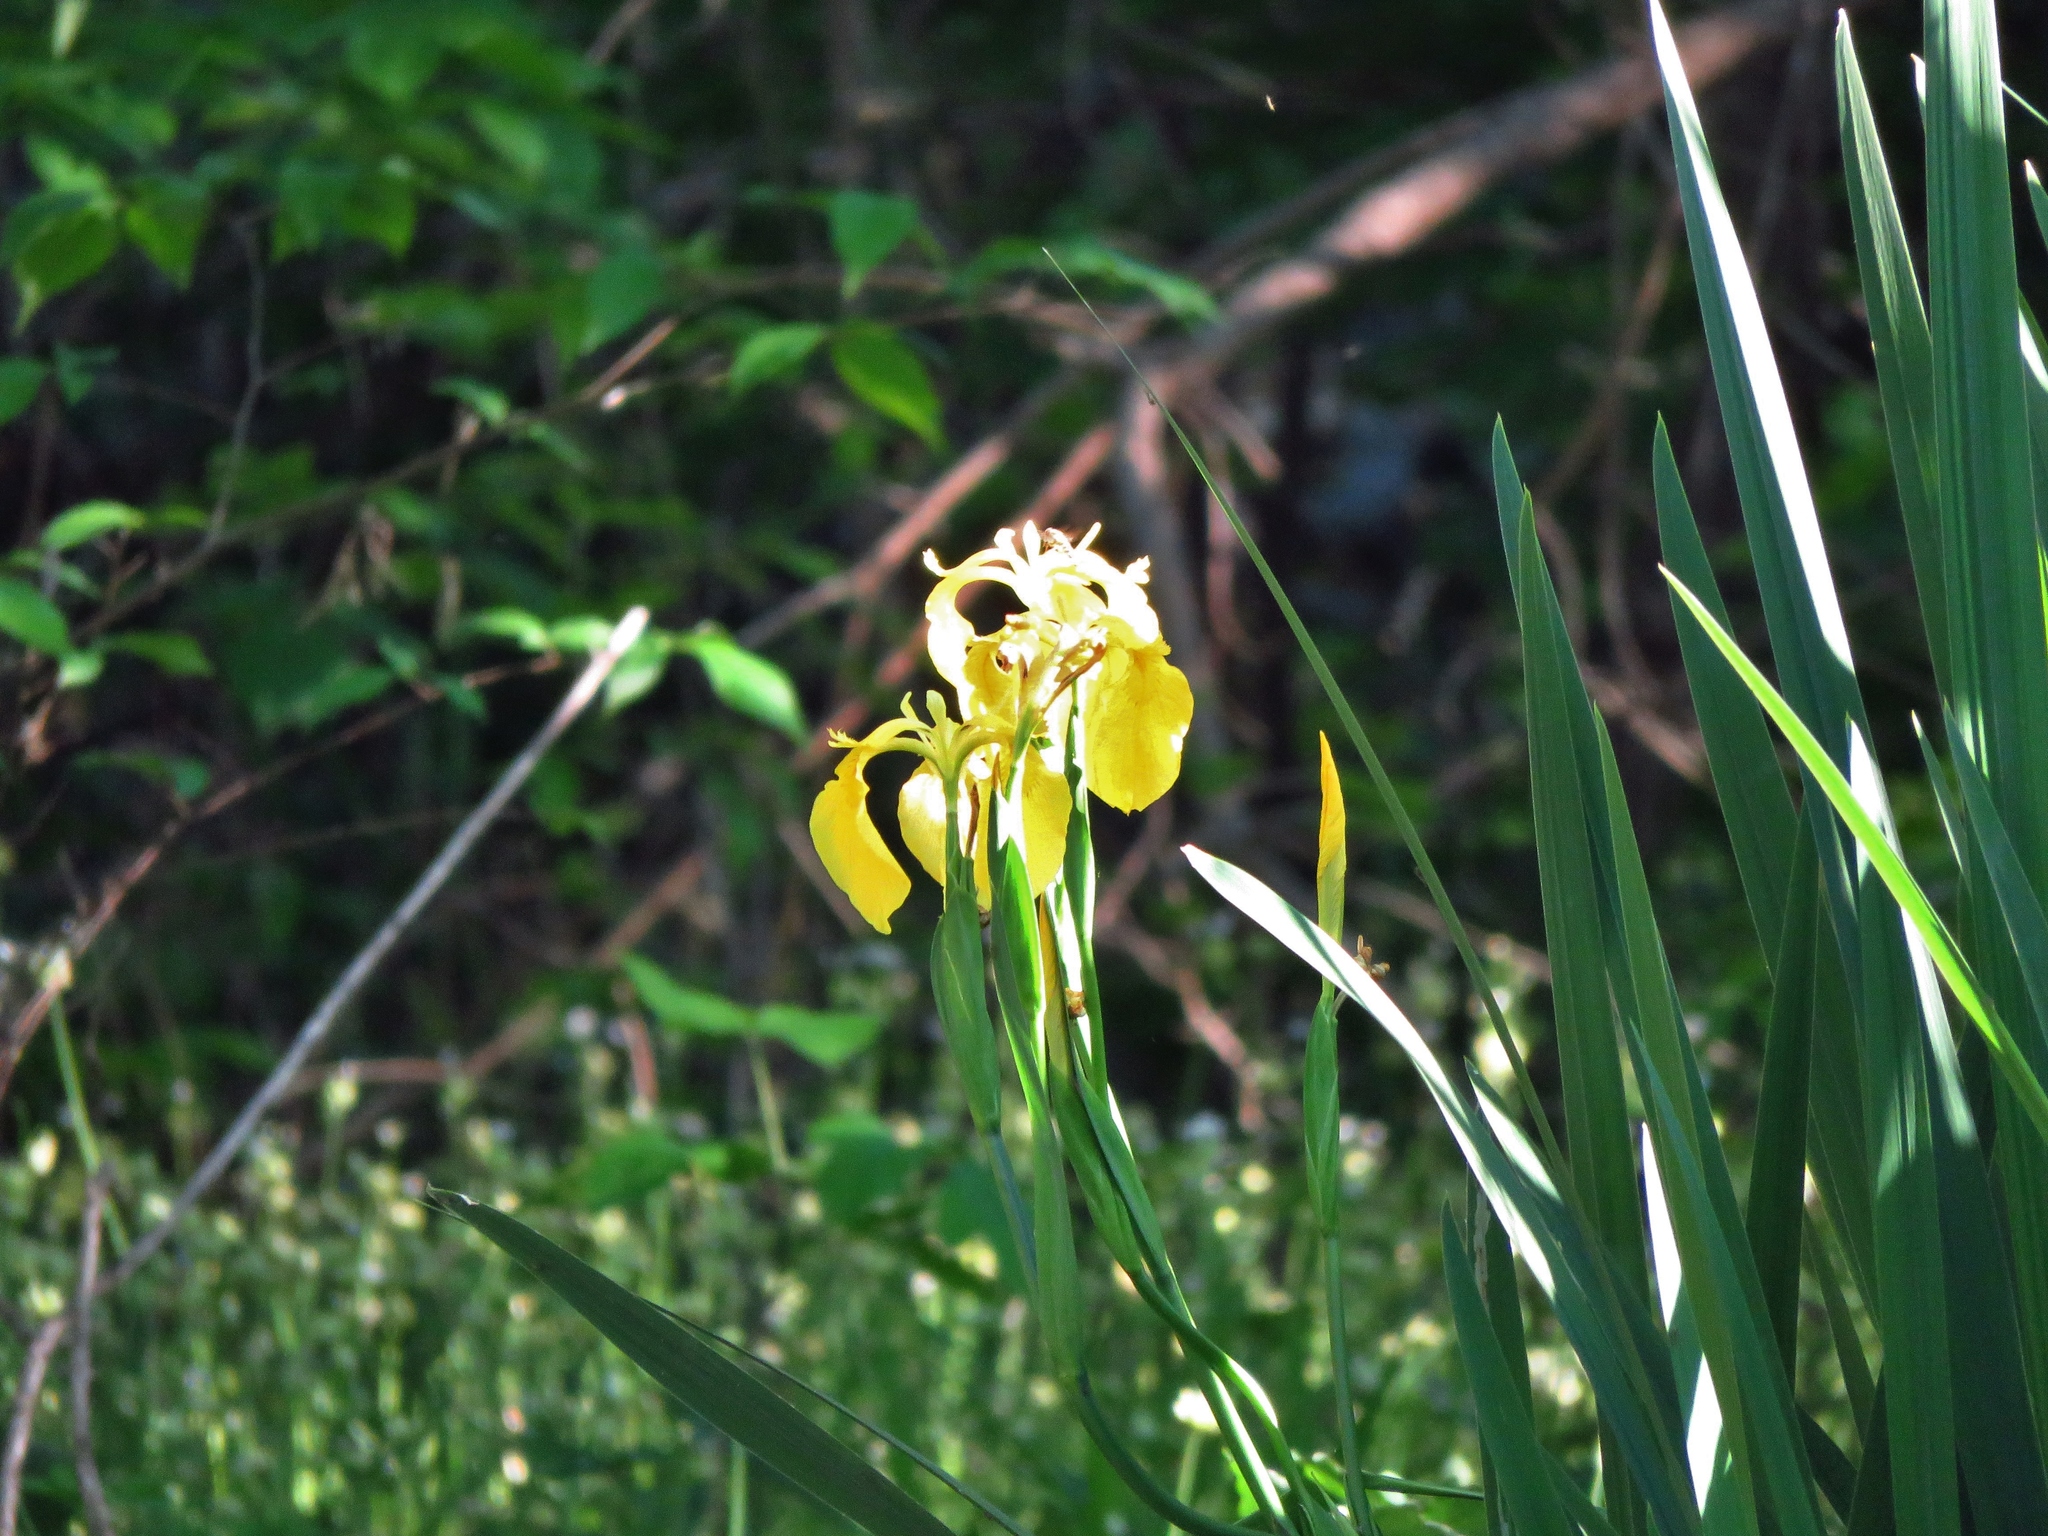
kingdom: Plantae
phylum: Tracheophyta
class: Liliopsida
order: Asparagales
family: Iridaceae
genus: Iris
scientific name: Iris pseudacorus
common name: Yellow flag
